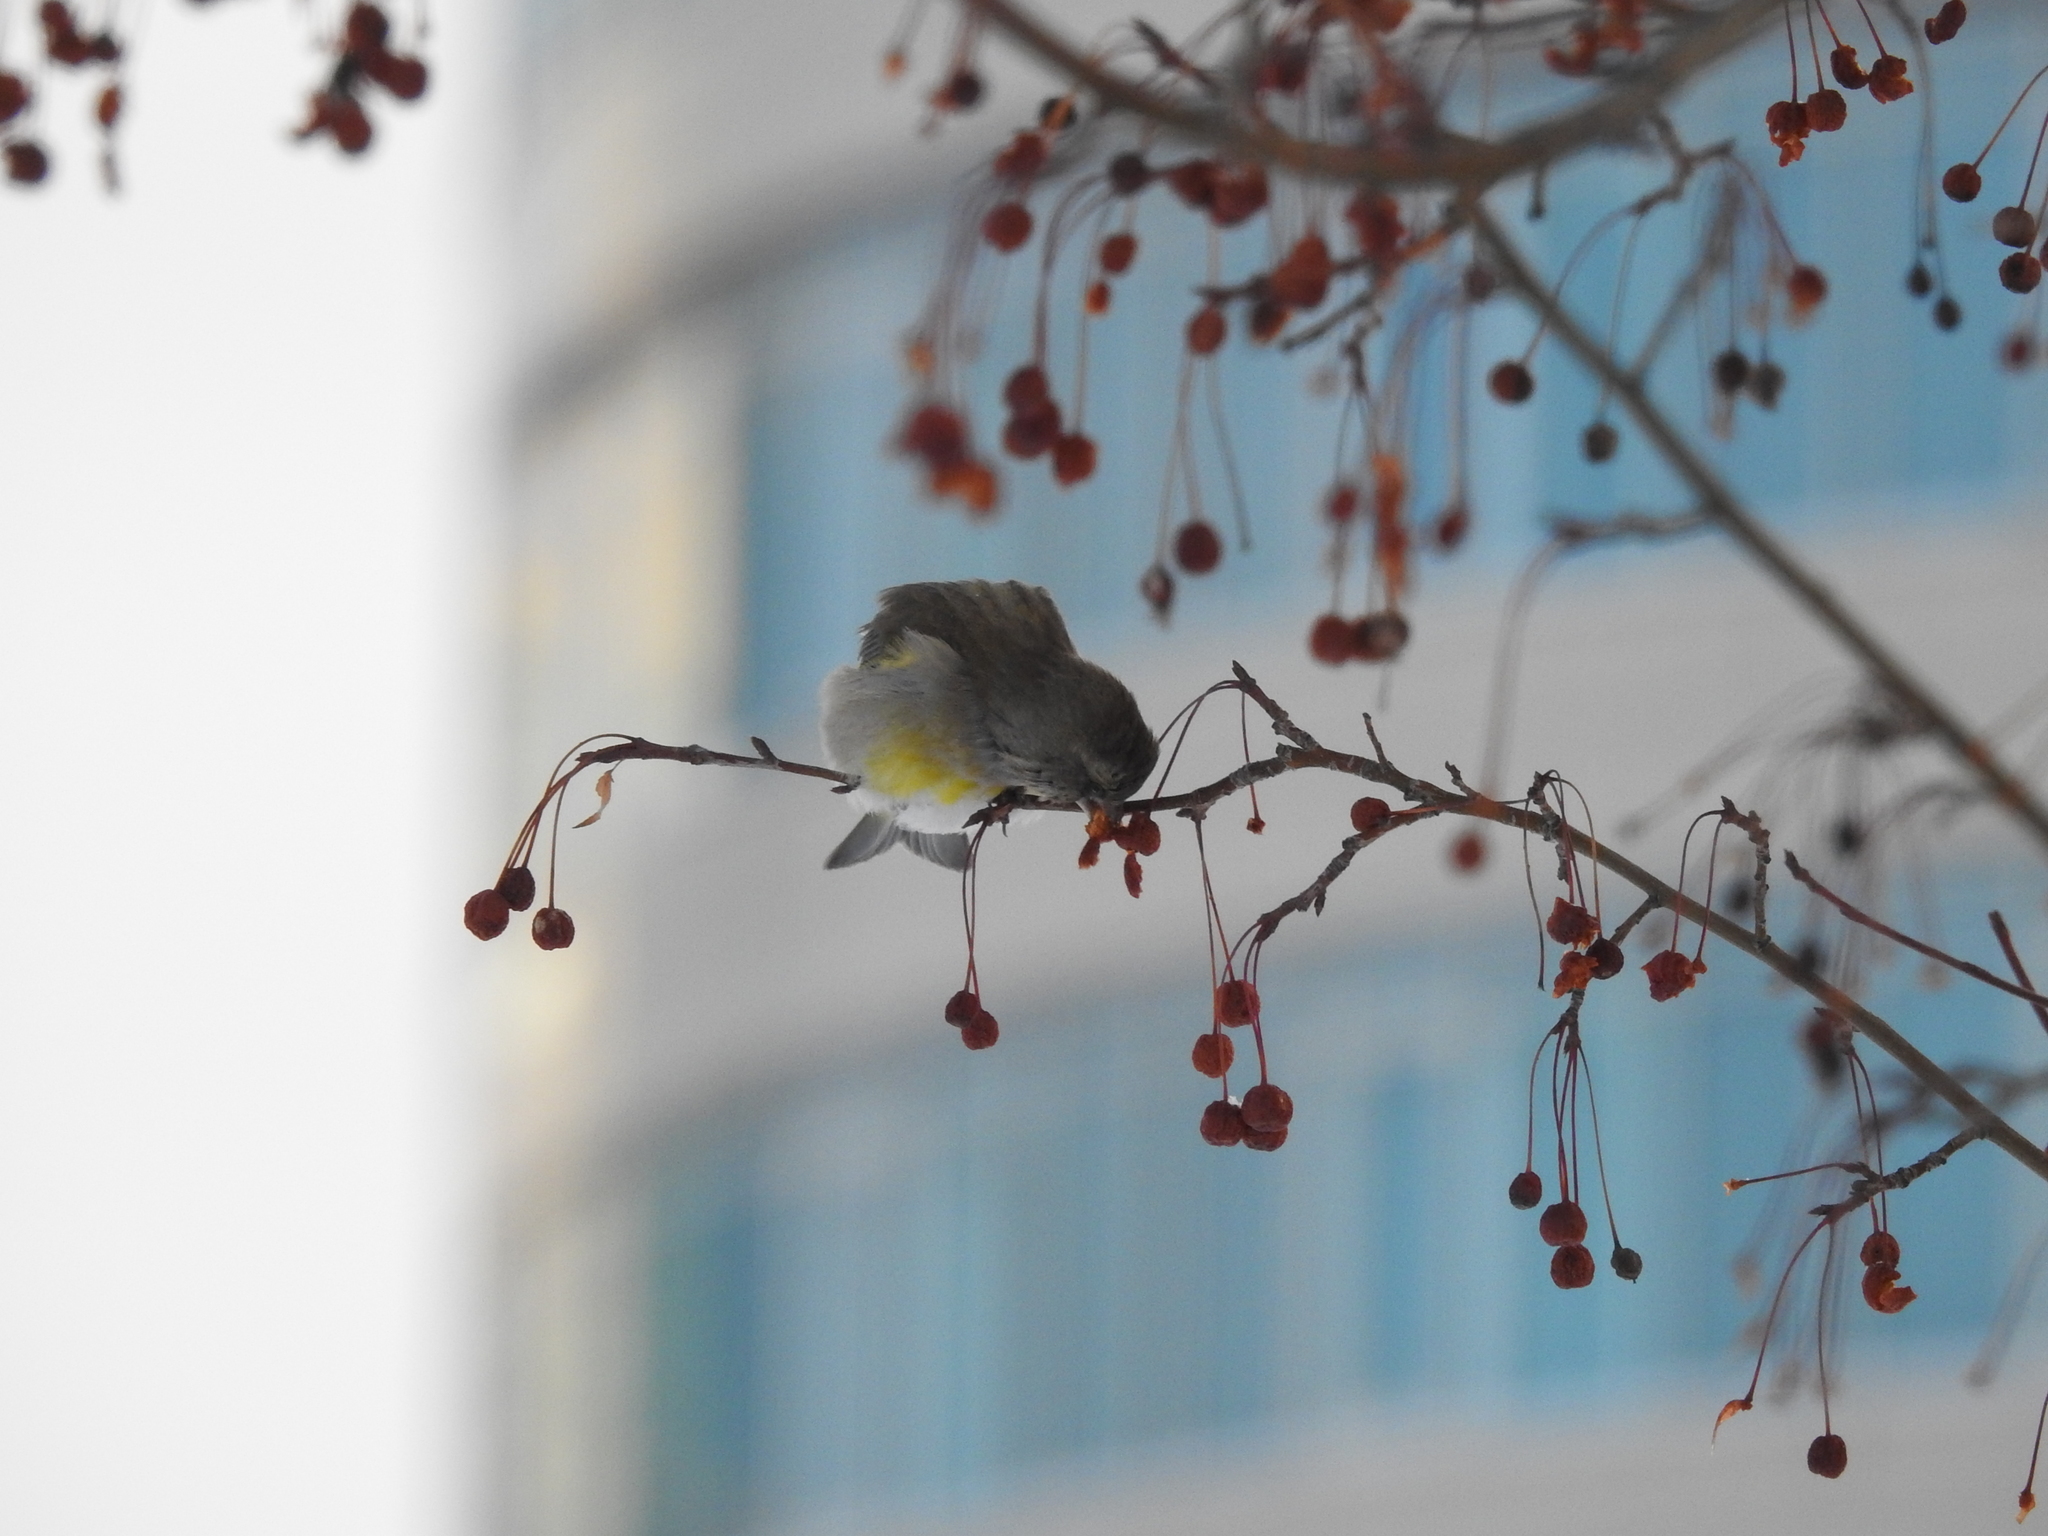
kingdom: Plantae
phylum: Tracheophyta
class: Liliopsida
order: Poales
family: Poaceae
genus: Chloris
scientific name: Chloris chloris
